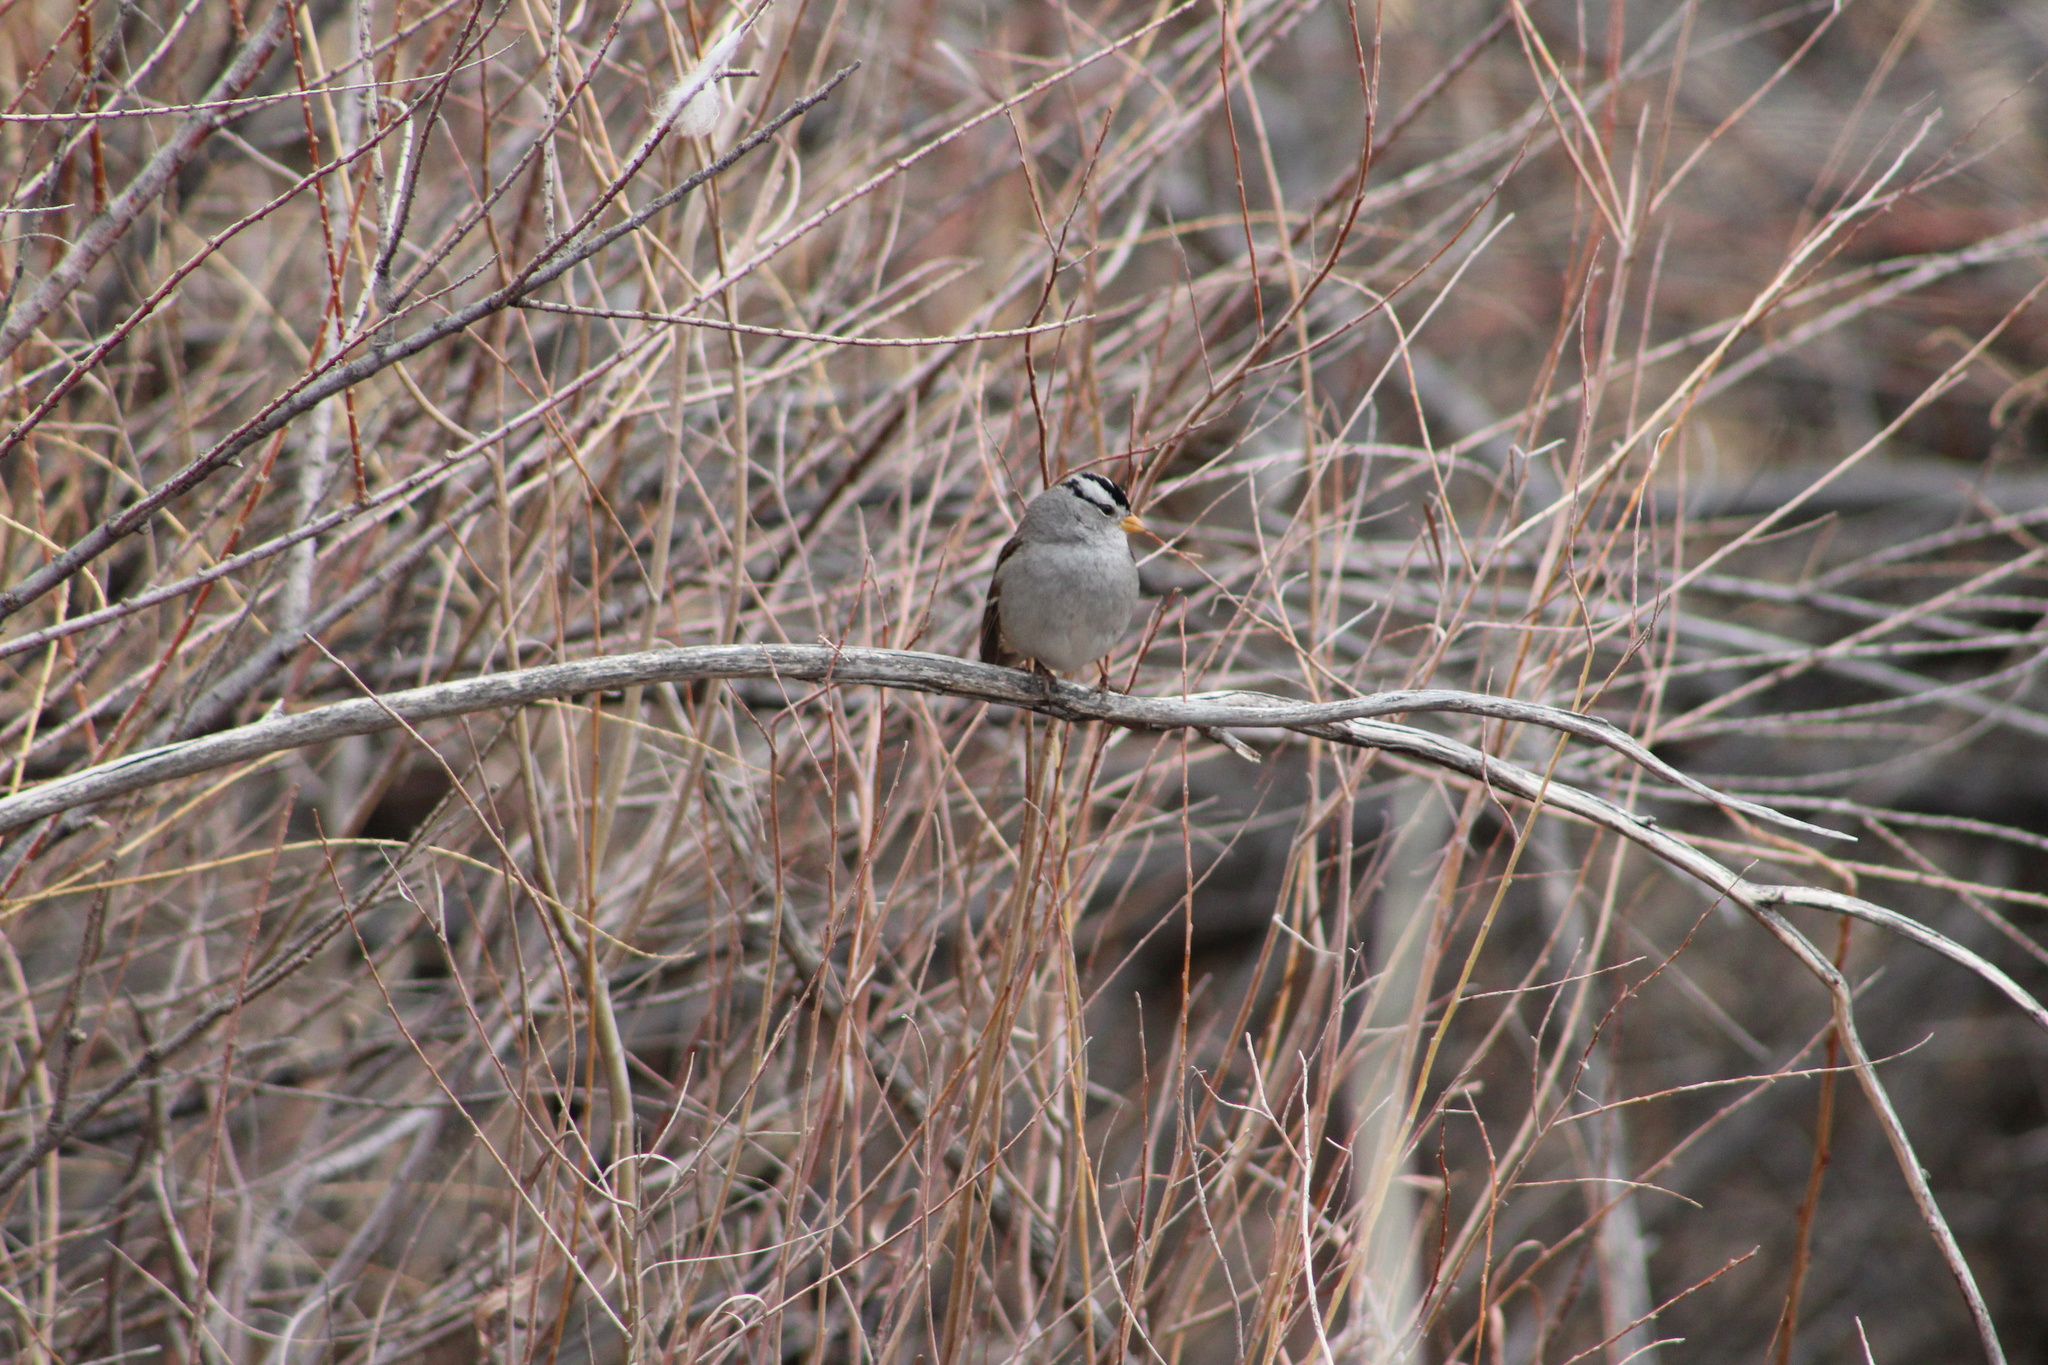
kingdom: Animalia
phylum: Chordata
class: Aves
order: Passeriformes
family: Passerellidae
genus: Zonotrichia
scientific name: Zonotrichia leucophrys
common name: White-crowned sparrow
